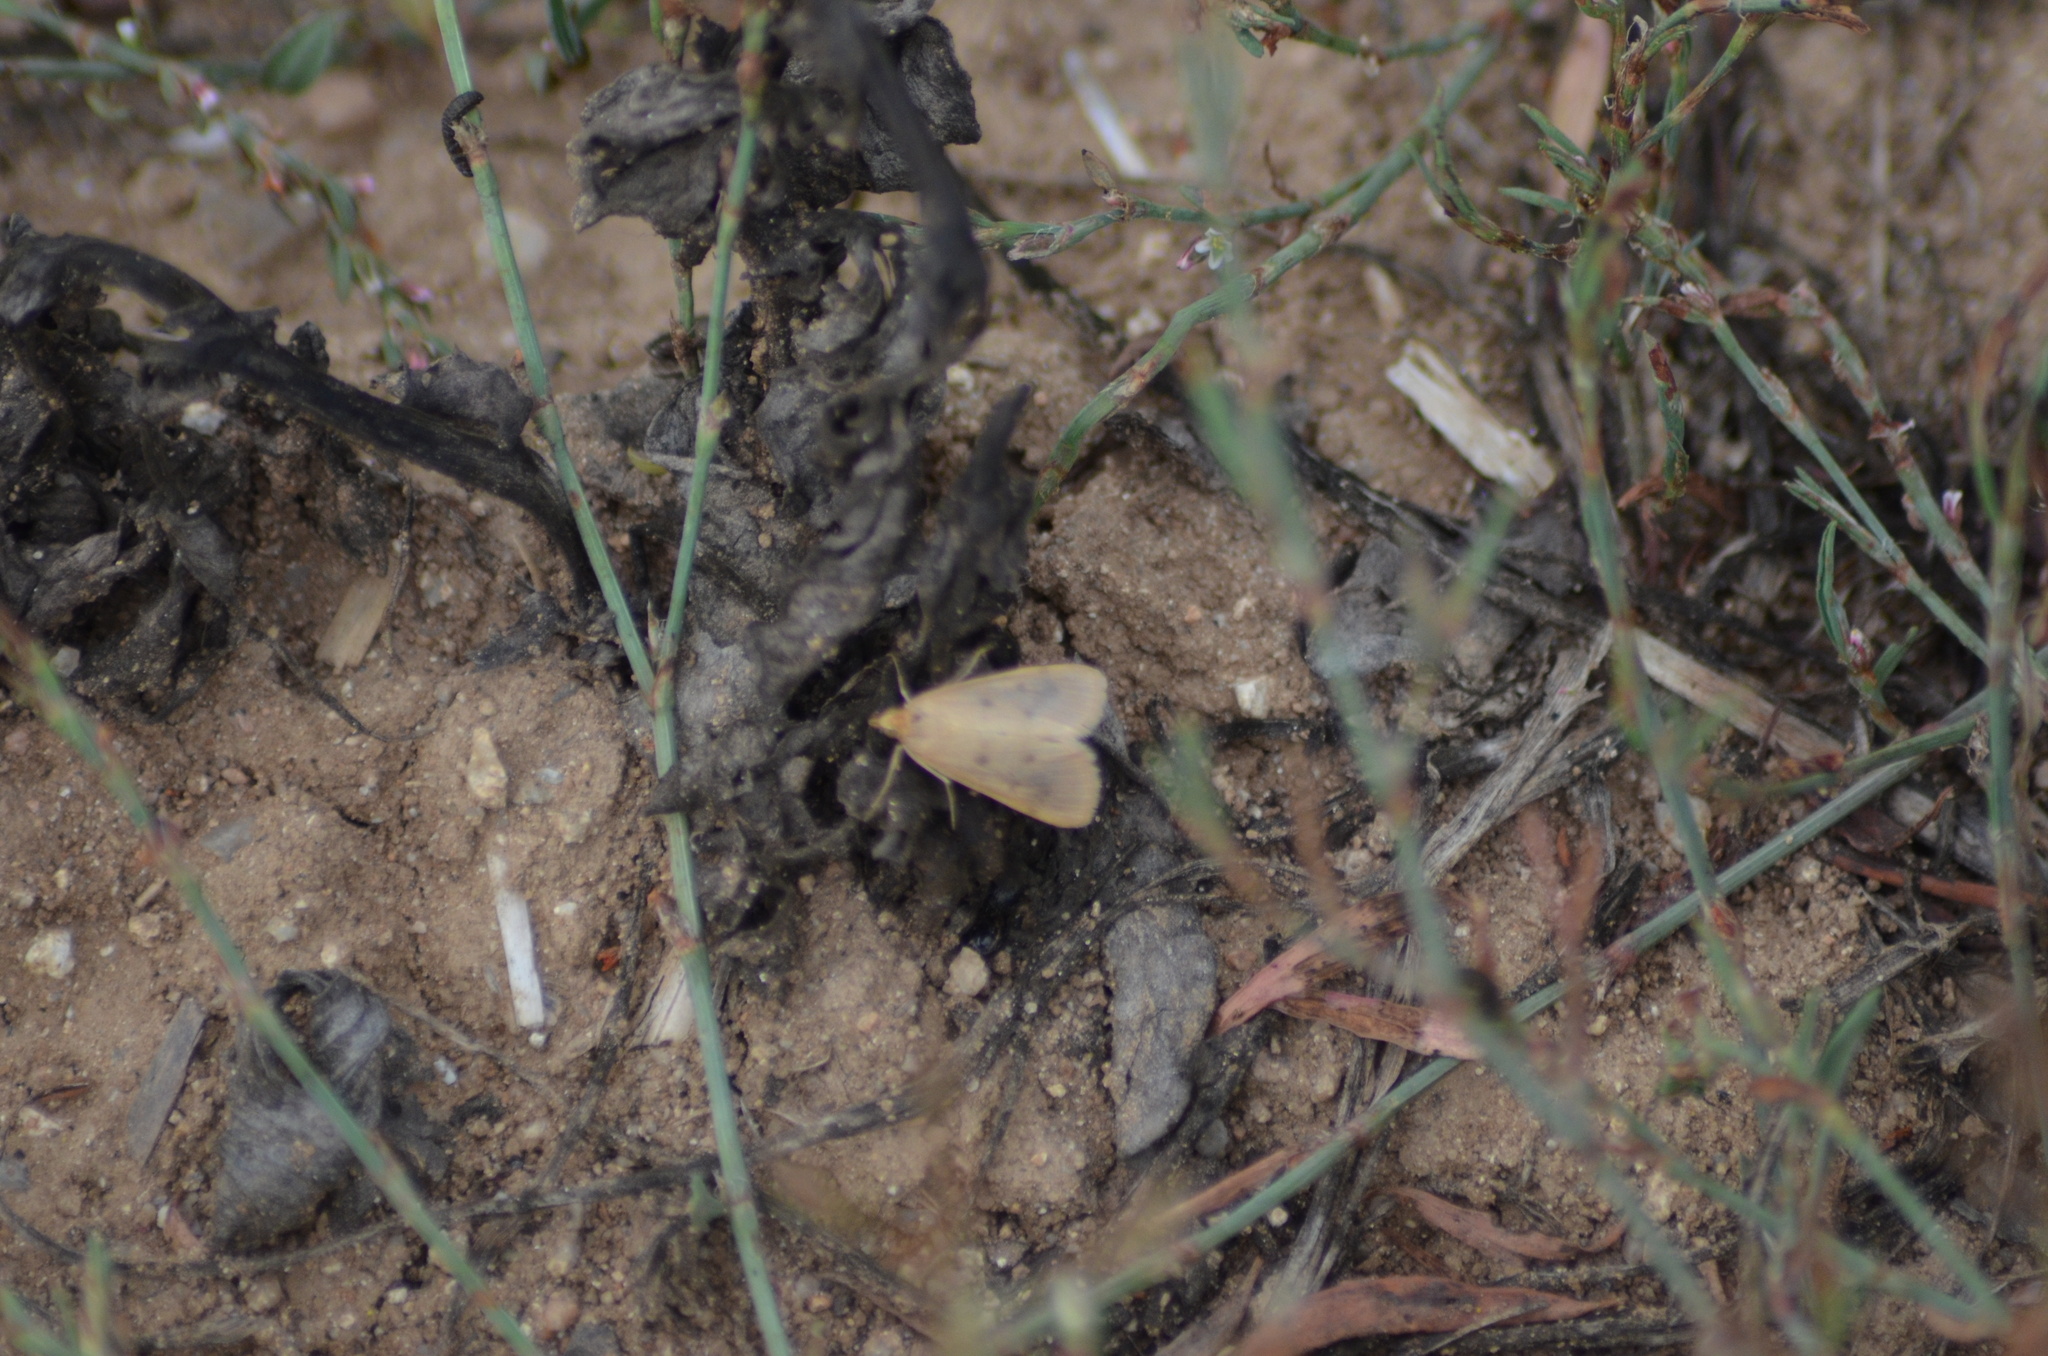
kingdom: Animalia
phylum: Arthropoda
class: Insecta
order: Lepidoptera
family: Crambidae
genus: Achyra
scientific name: Achyra nudalis
